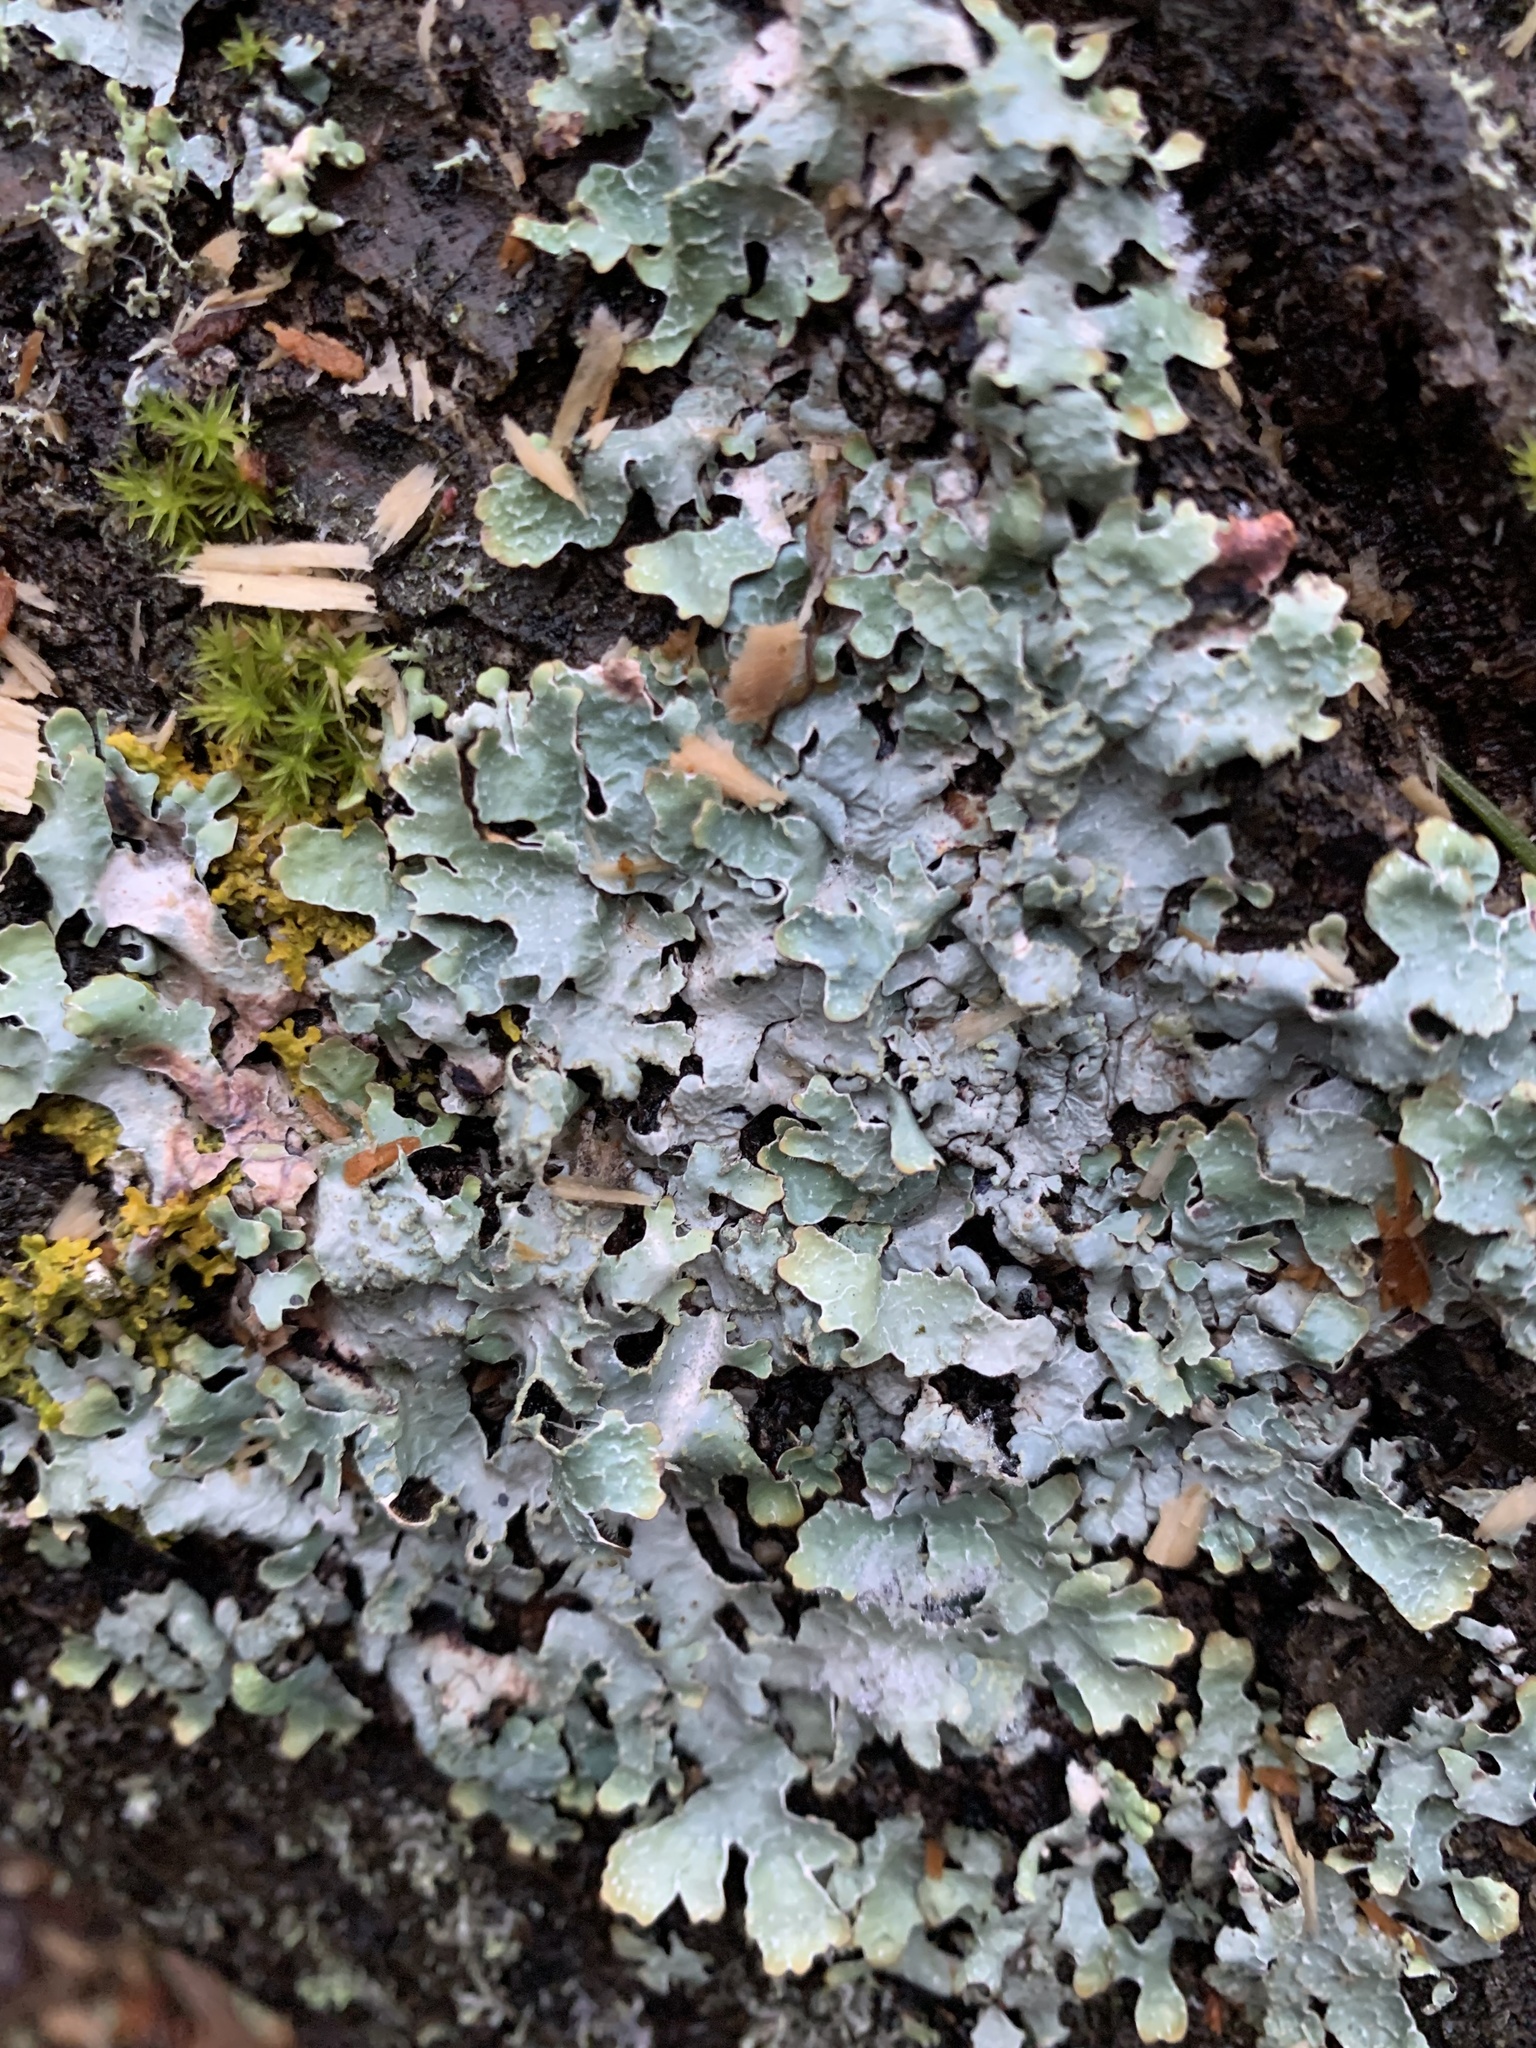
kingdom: Fungi
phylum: Ascomycota
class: Lecanoromycetes
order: Lecanorales
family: Parmeliaceae
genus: Parmelia
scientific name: Parmelia sulcata
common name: Netted shield lichen
